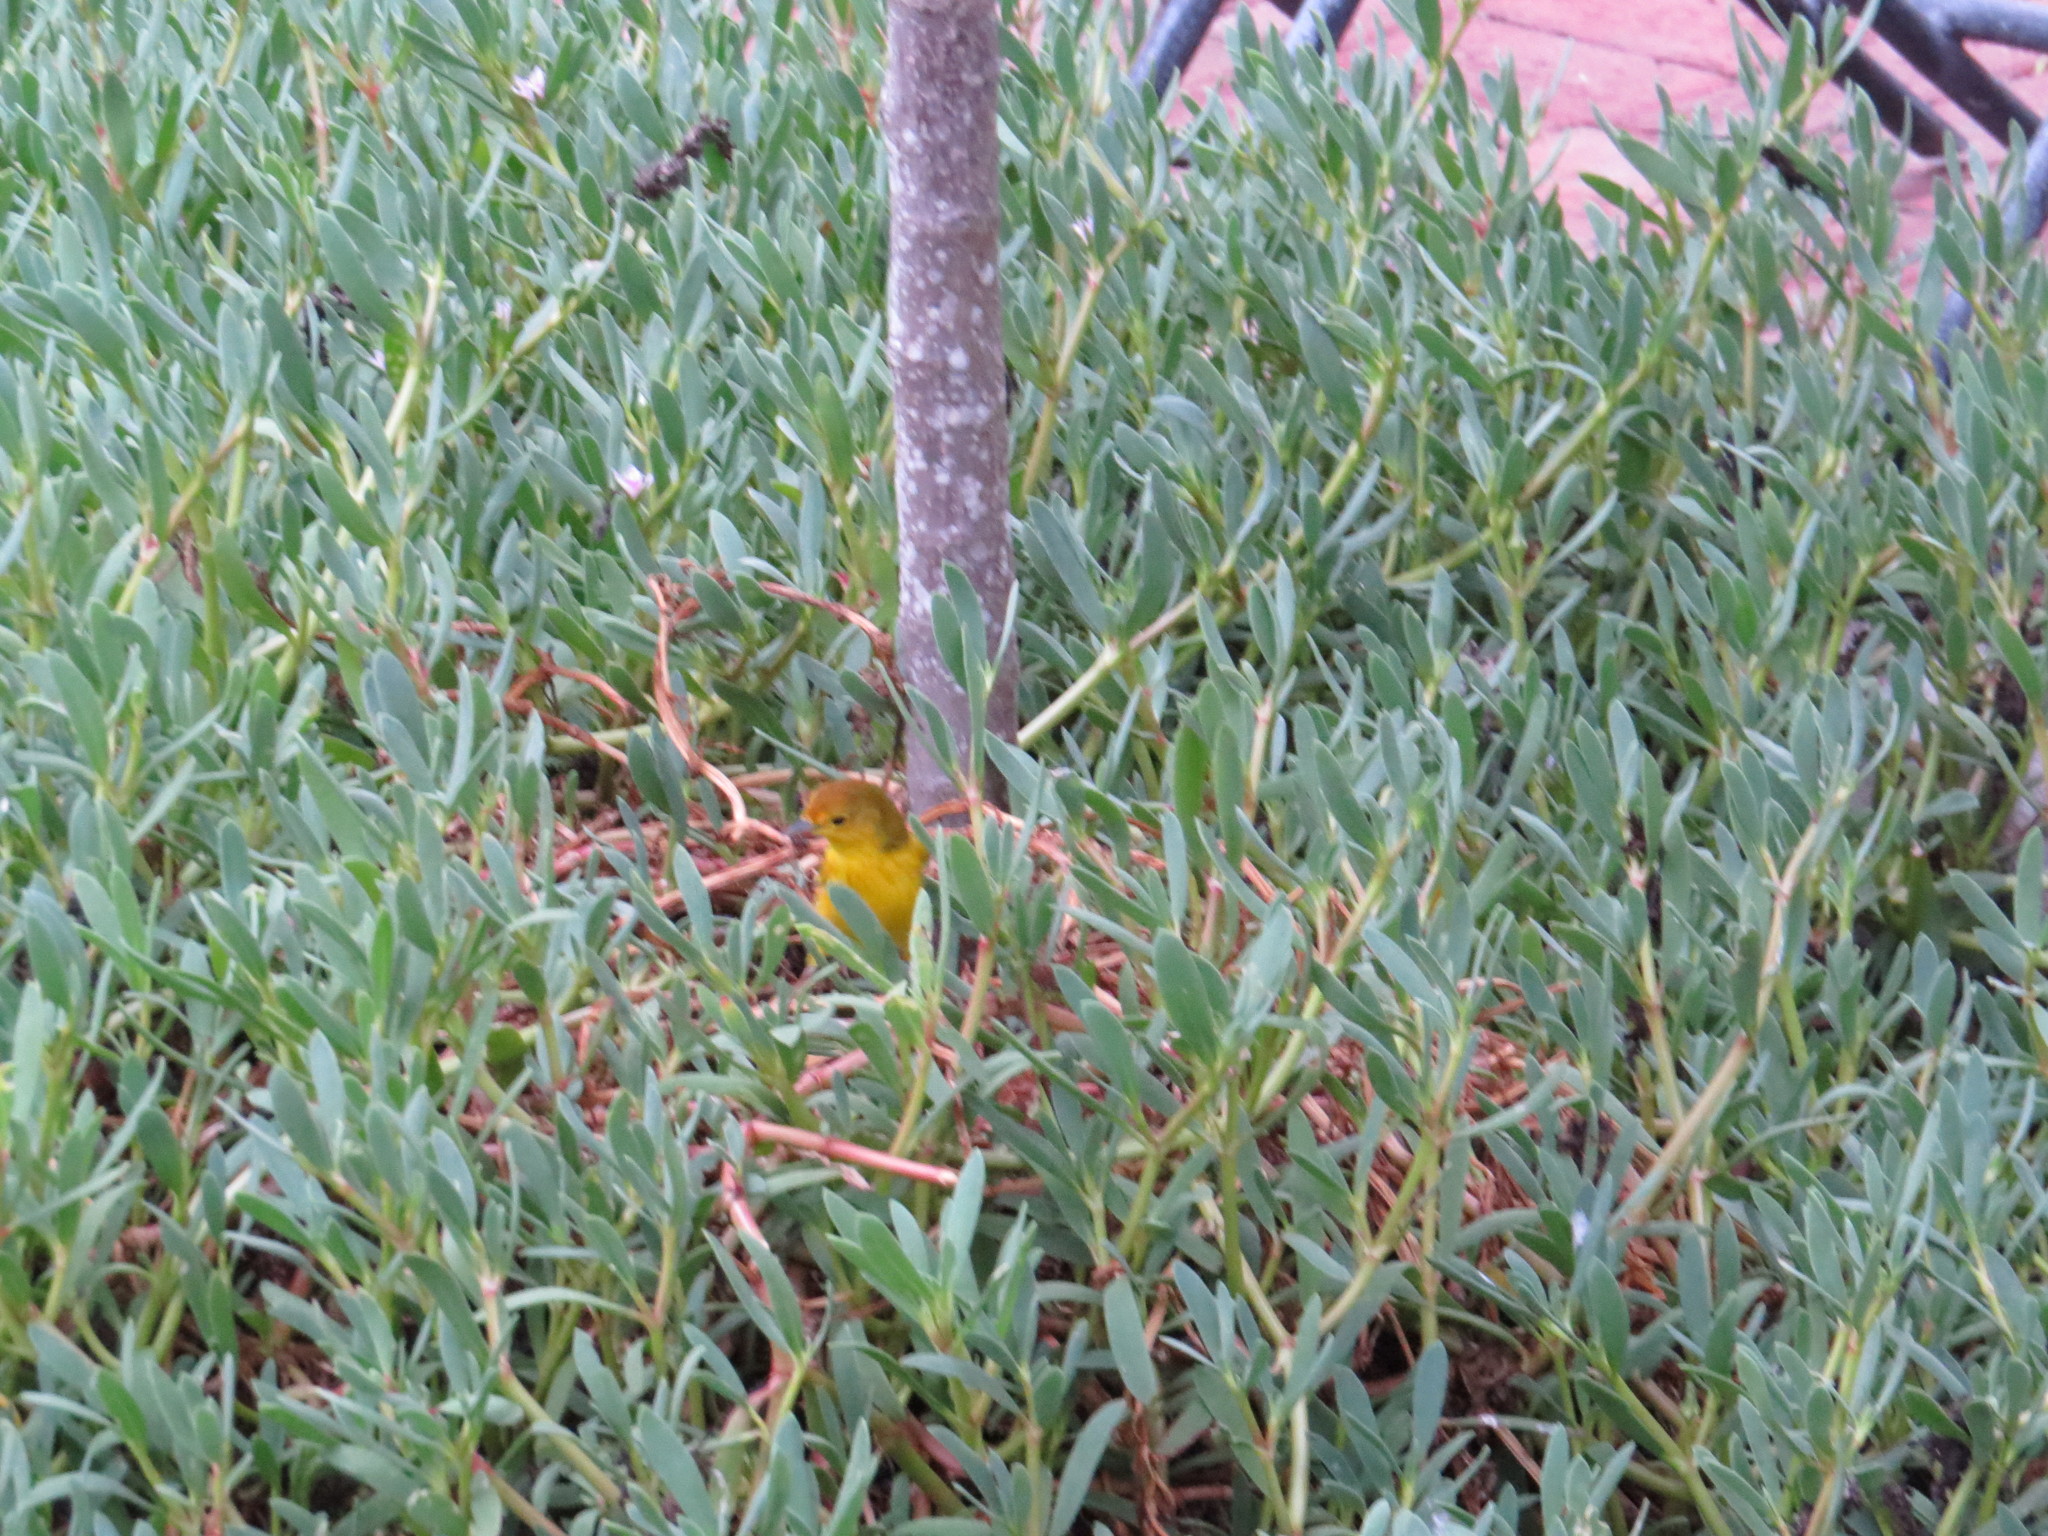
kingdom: Animalia
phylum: Chordata
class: Aves
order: Passeriformes
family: Parulidae
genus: Setophaga
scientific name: Setophaga petechia
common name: Yellow warbler
